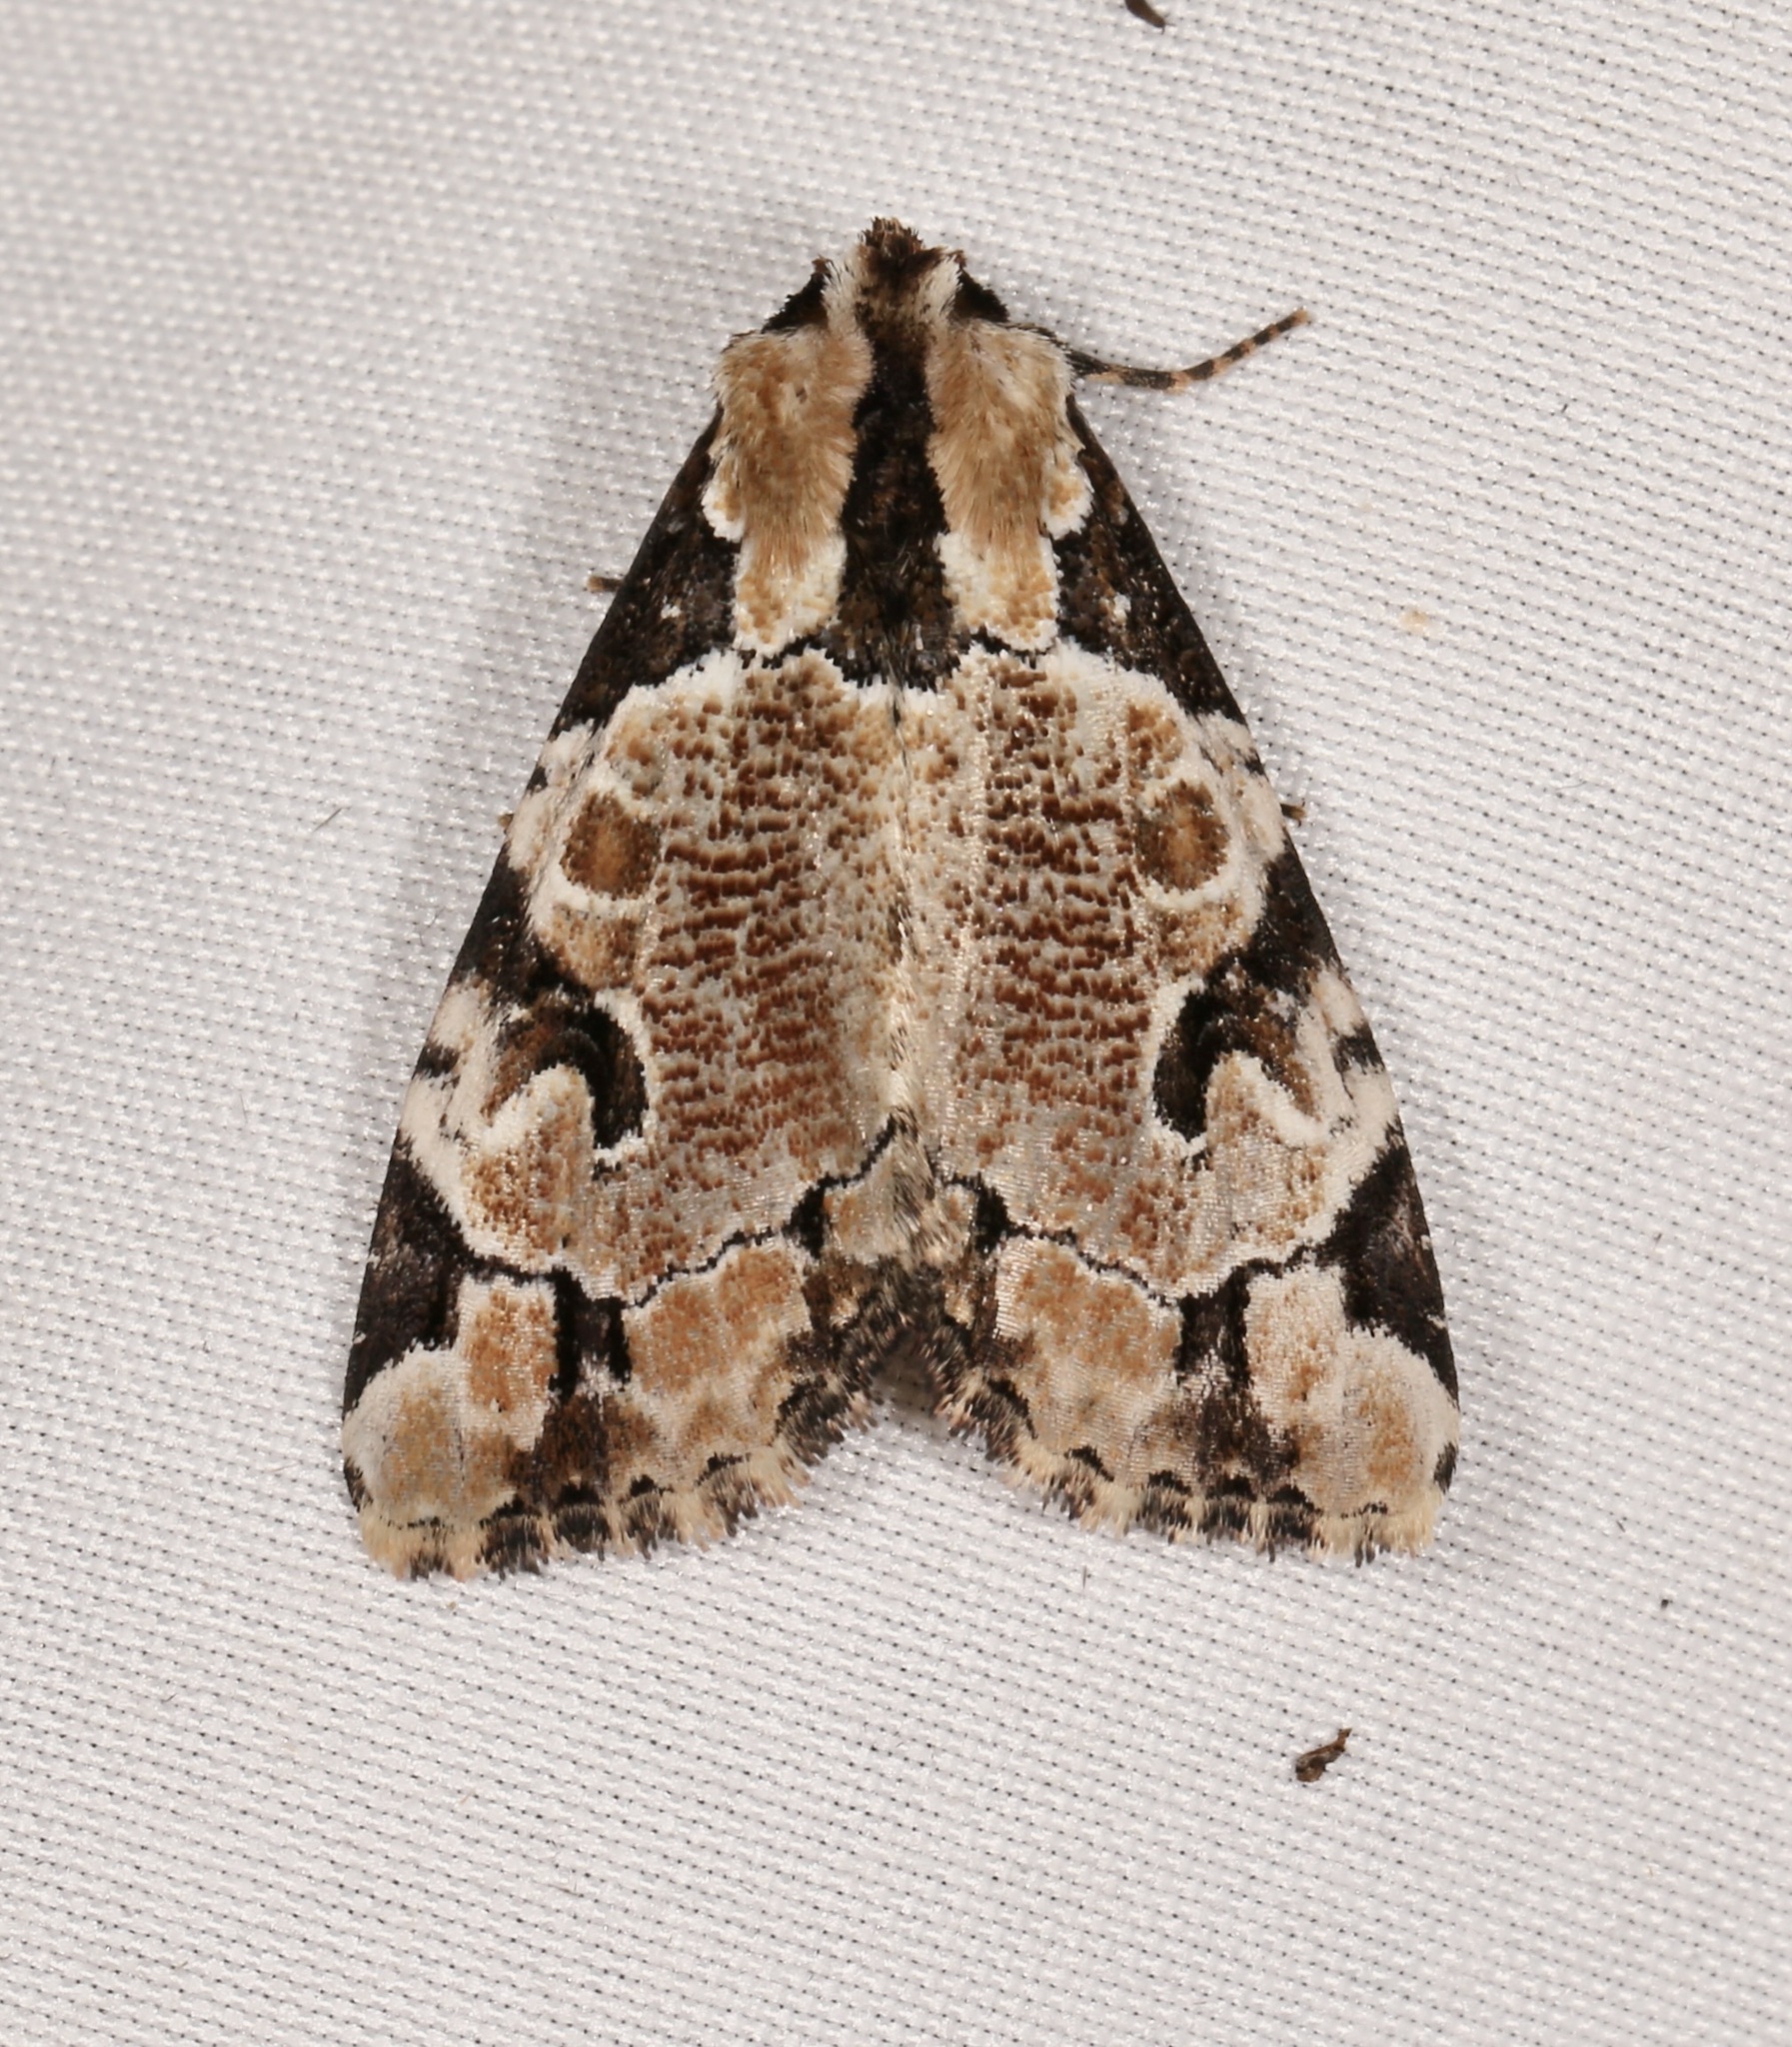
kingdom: Animalia
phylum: Arthropoda
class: Insecta
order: Lepidoptera
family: Noctuidae
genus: Stibaera
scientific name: Stibaera thyatiroides
